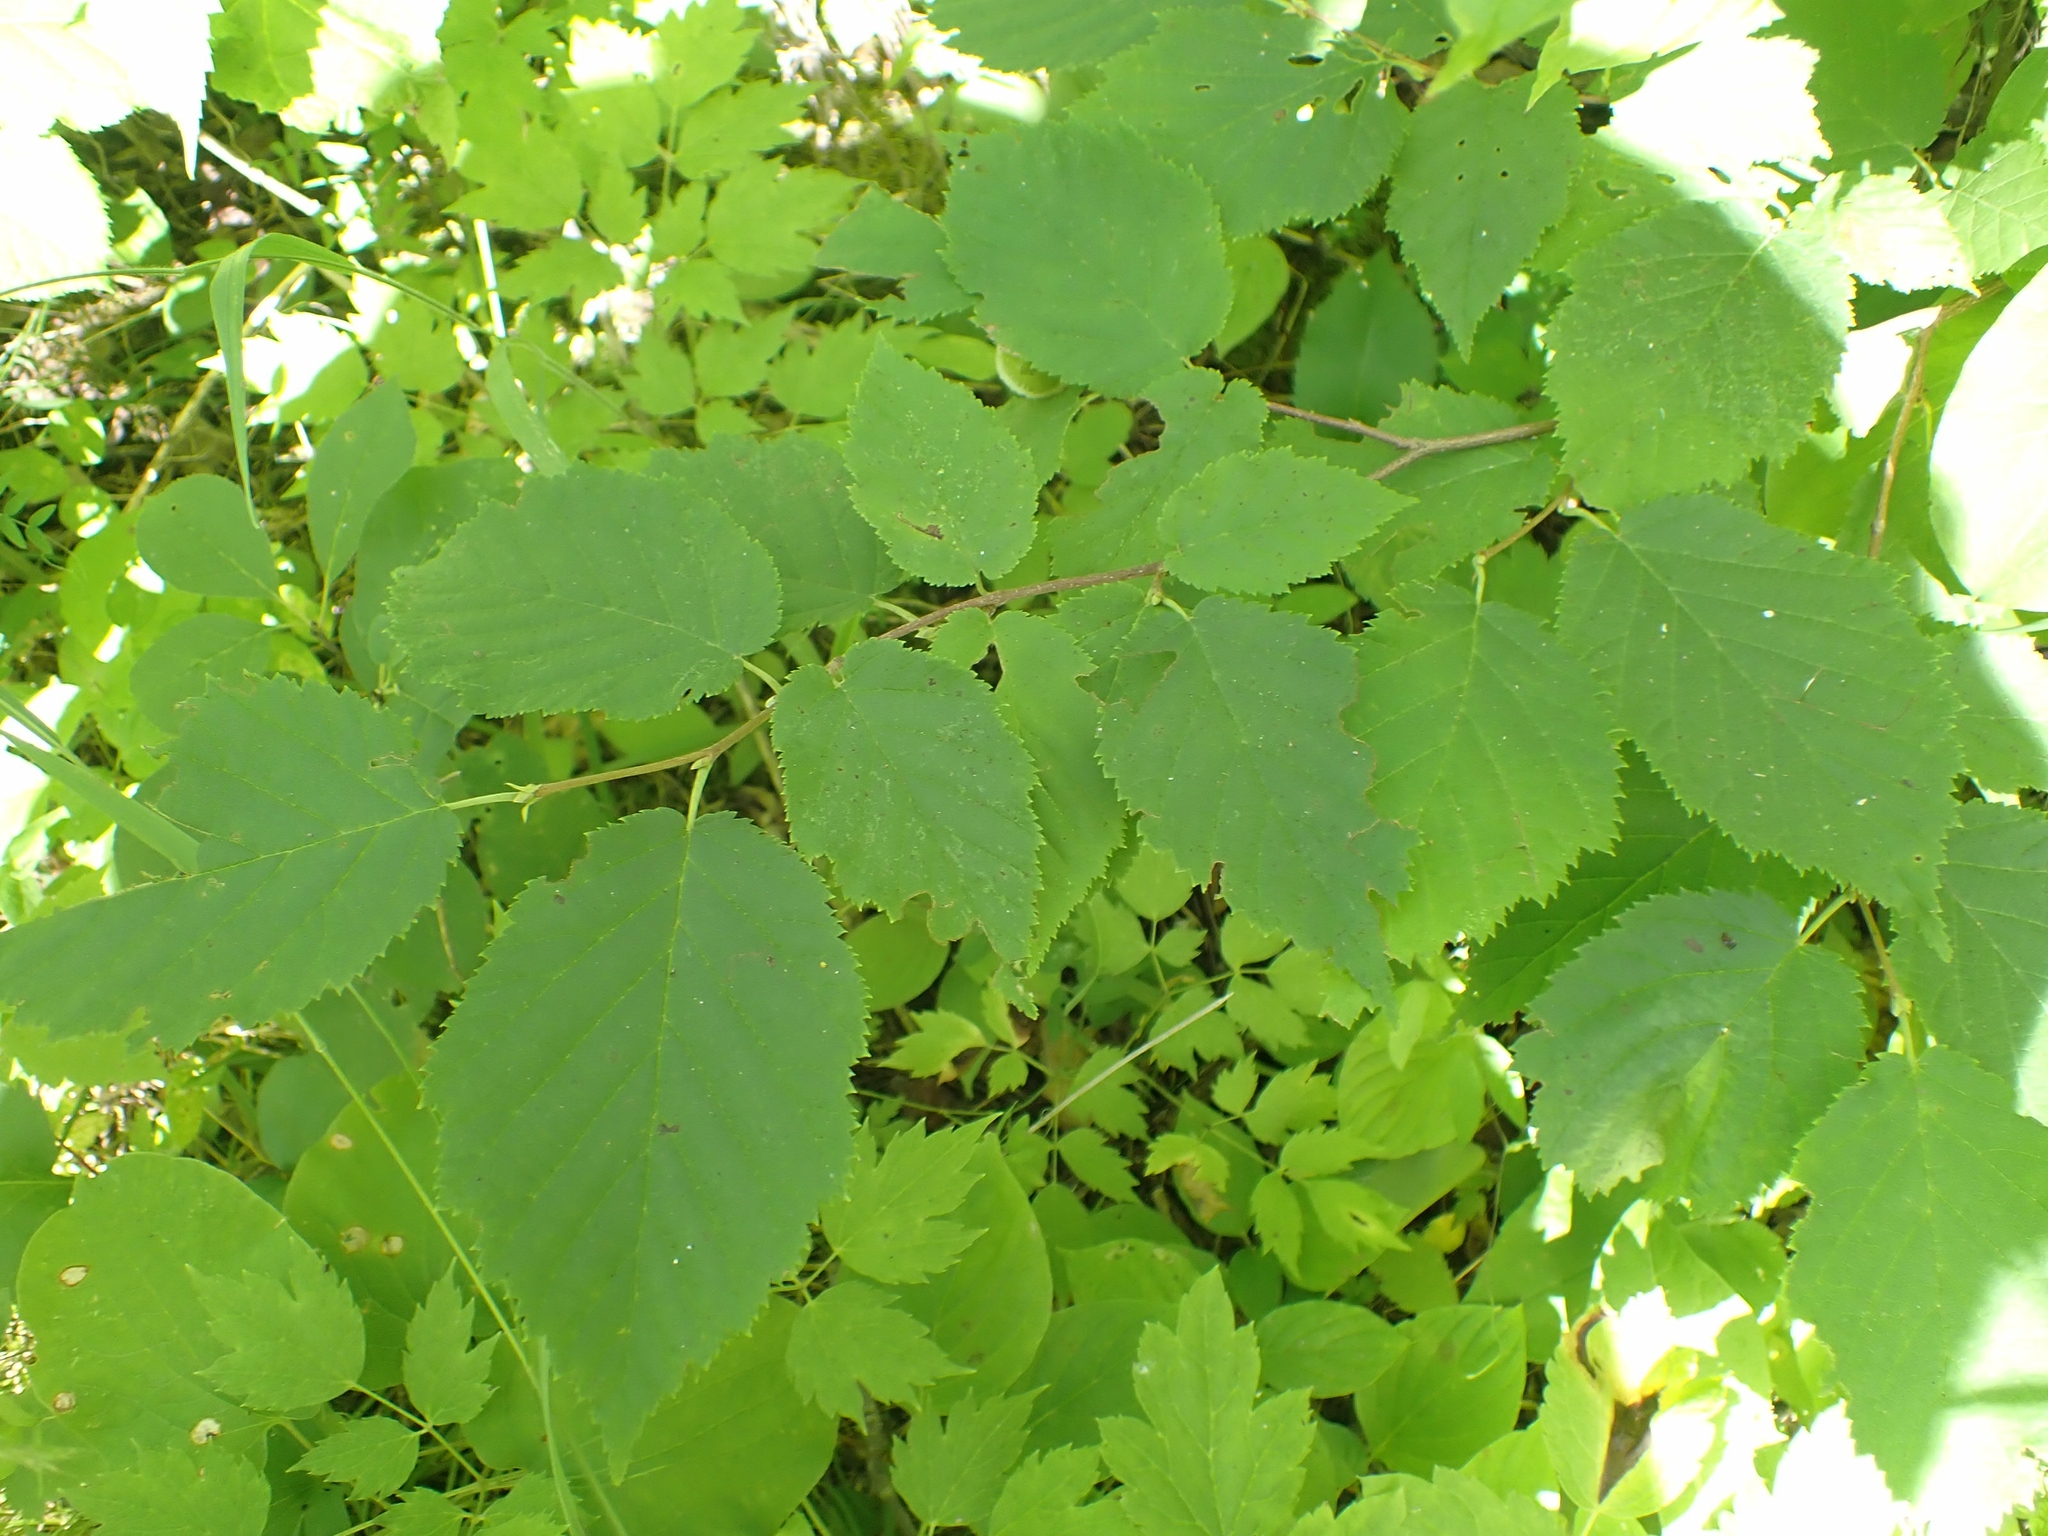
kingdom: Plantae
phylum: Tracheophyta
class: Magnoliopsida
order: Fagales
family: Betulaceae
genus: Corylus
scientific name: Corylus cornuta
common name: Beaked hazel
